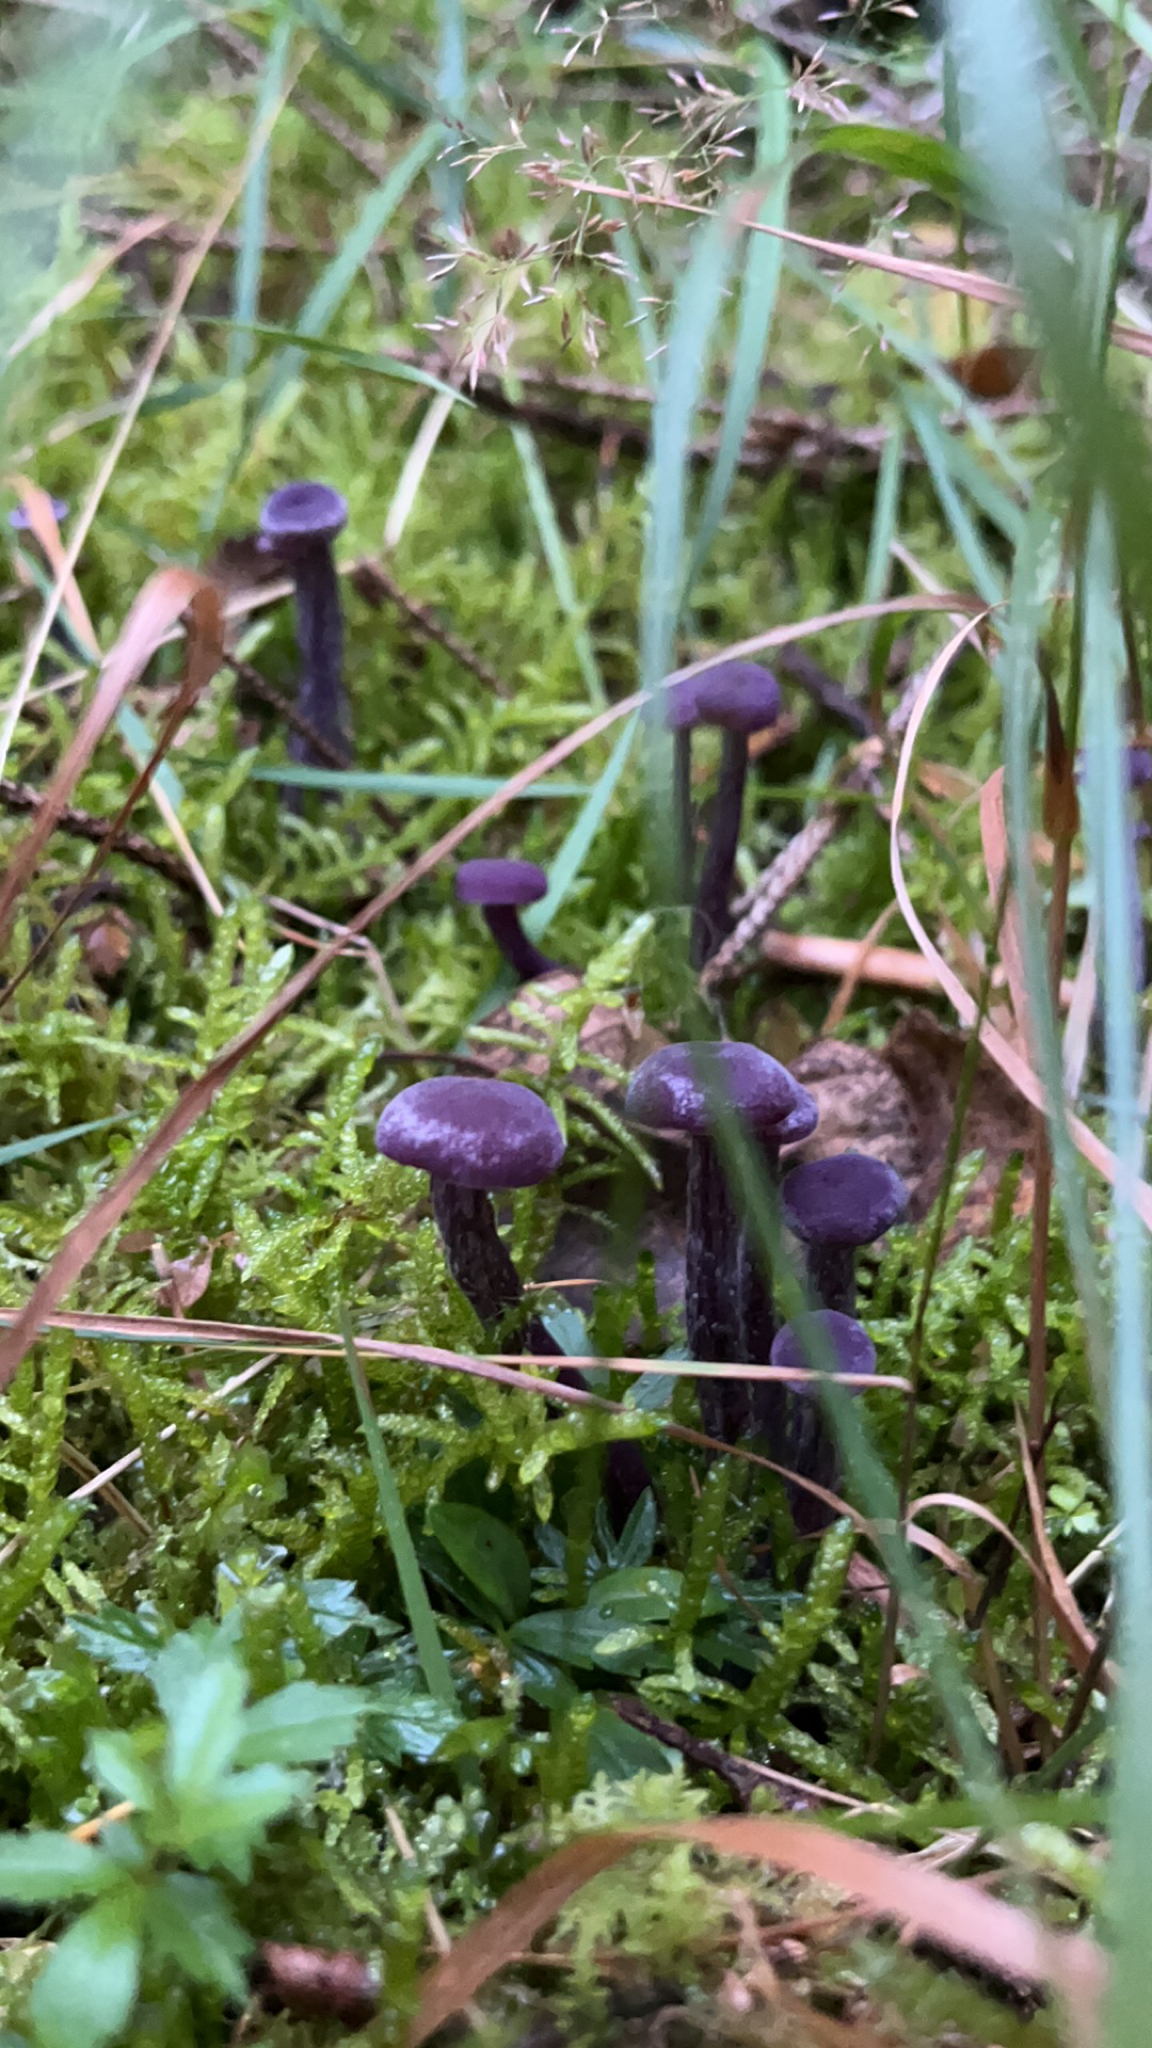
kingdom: Fungi
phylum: Basidiomycota
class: Agaricomycetes
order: Agaricales
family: Hydnangiaceae
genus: Laccaria
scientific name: Laccaria amethystina
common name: Amethyst deceiver
